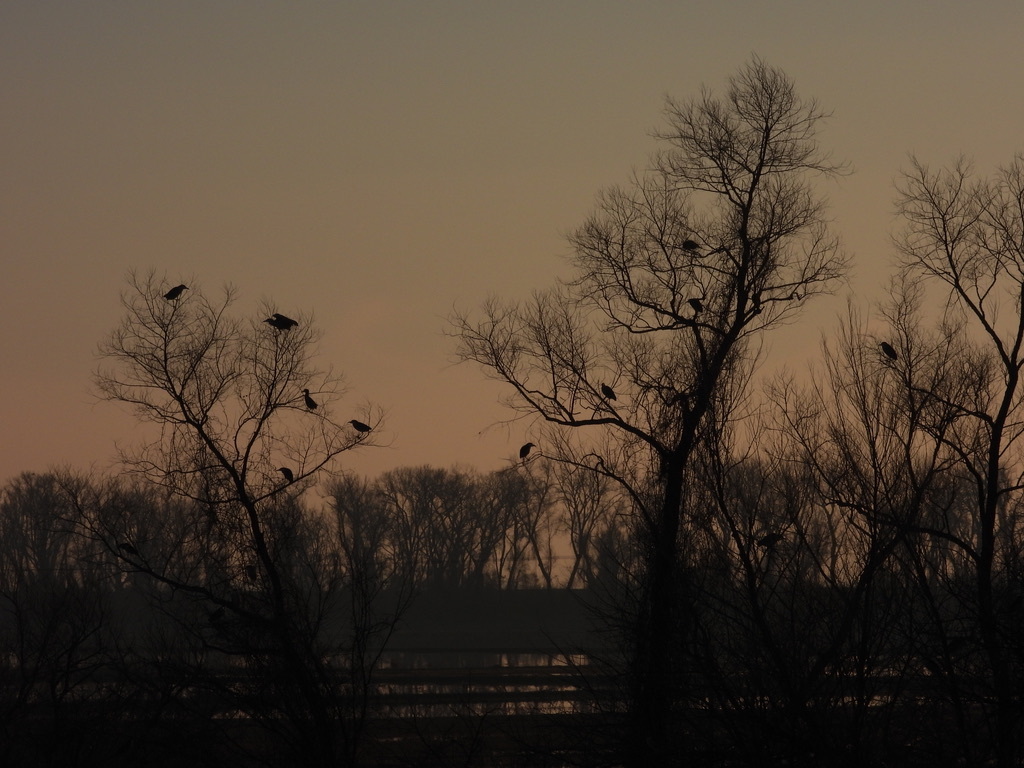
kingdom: Animalia
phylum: Chordata
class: Aves
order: Accipitriformes
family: Cathartidae
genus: Cathartes
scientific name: Cathartes aura
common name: Turkey vulture
